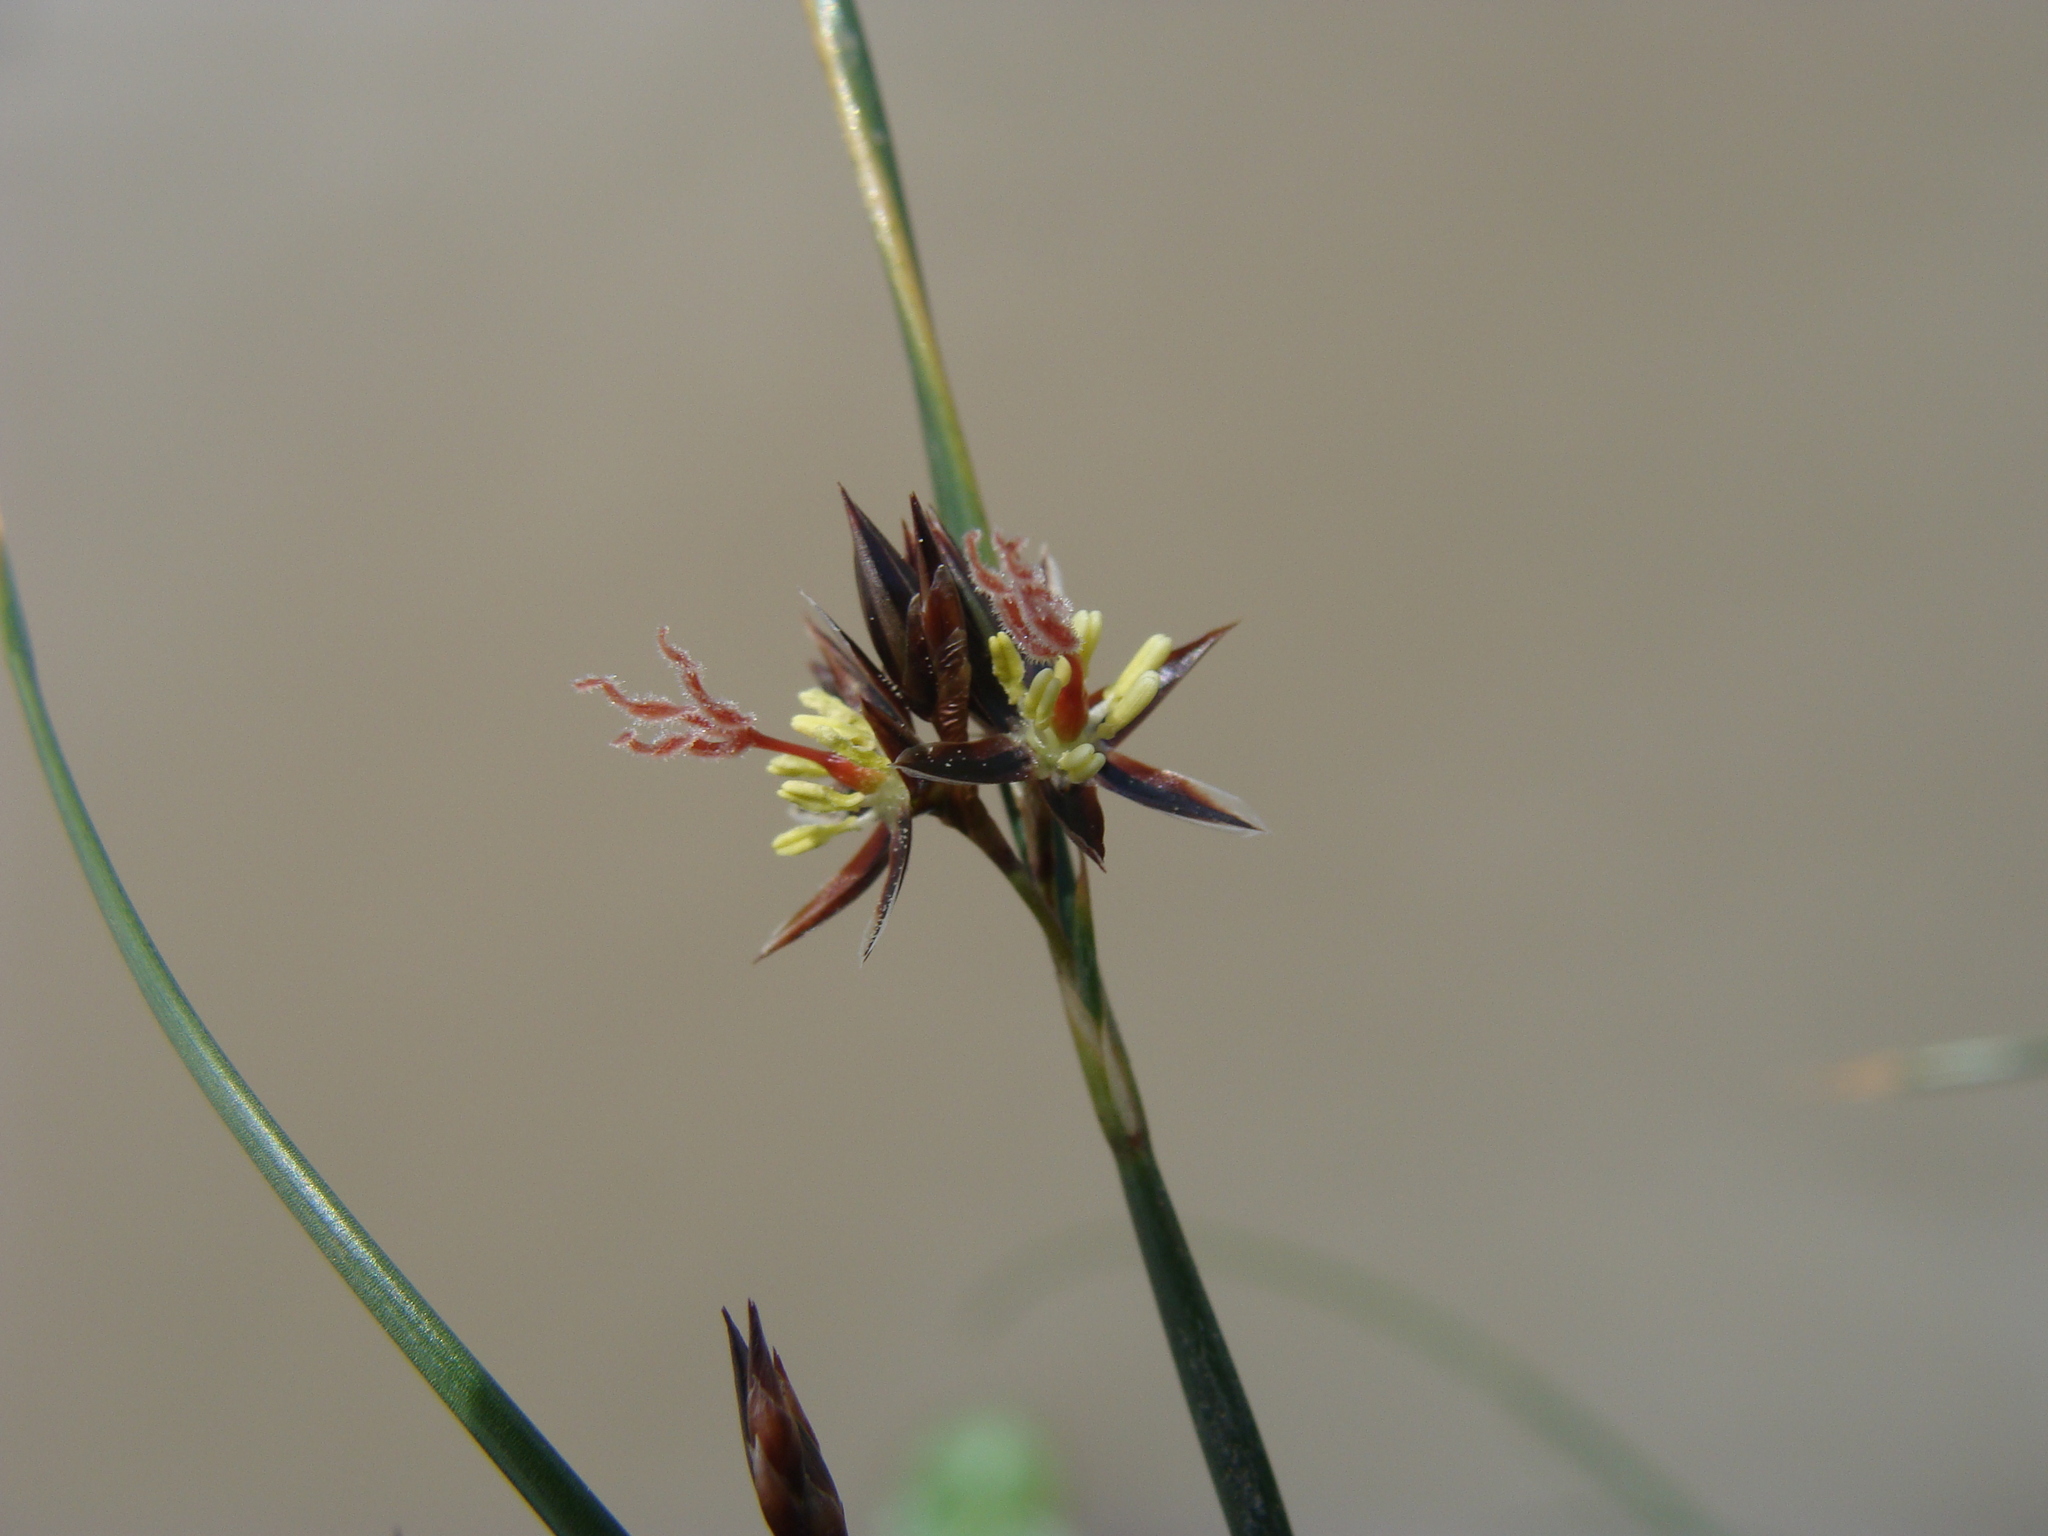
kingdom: Plantae
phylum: Tracheophyta
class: Liliopsida
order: Poales
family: Juncaceae
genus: Juncus
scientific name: Juncus balticus
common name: Baltic rush
